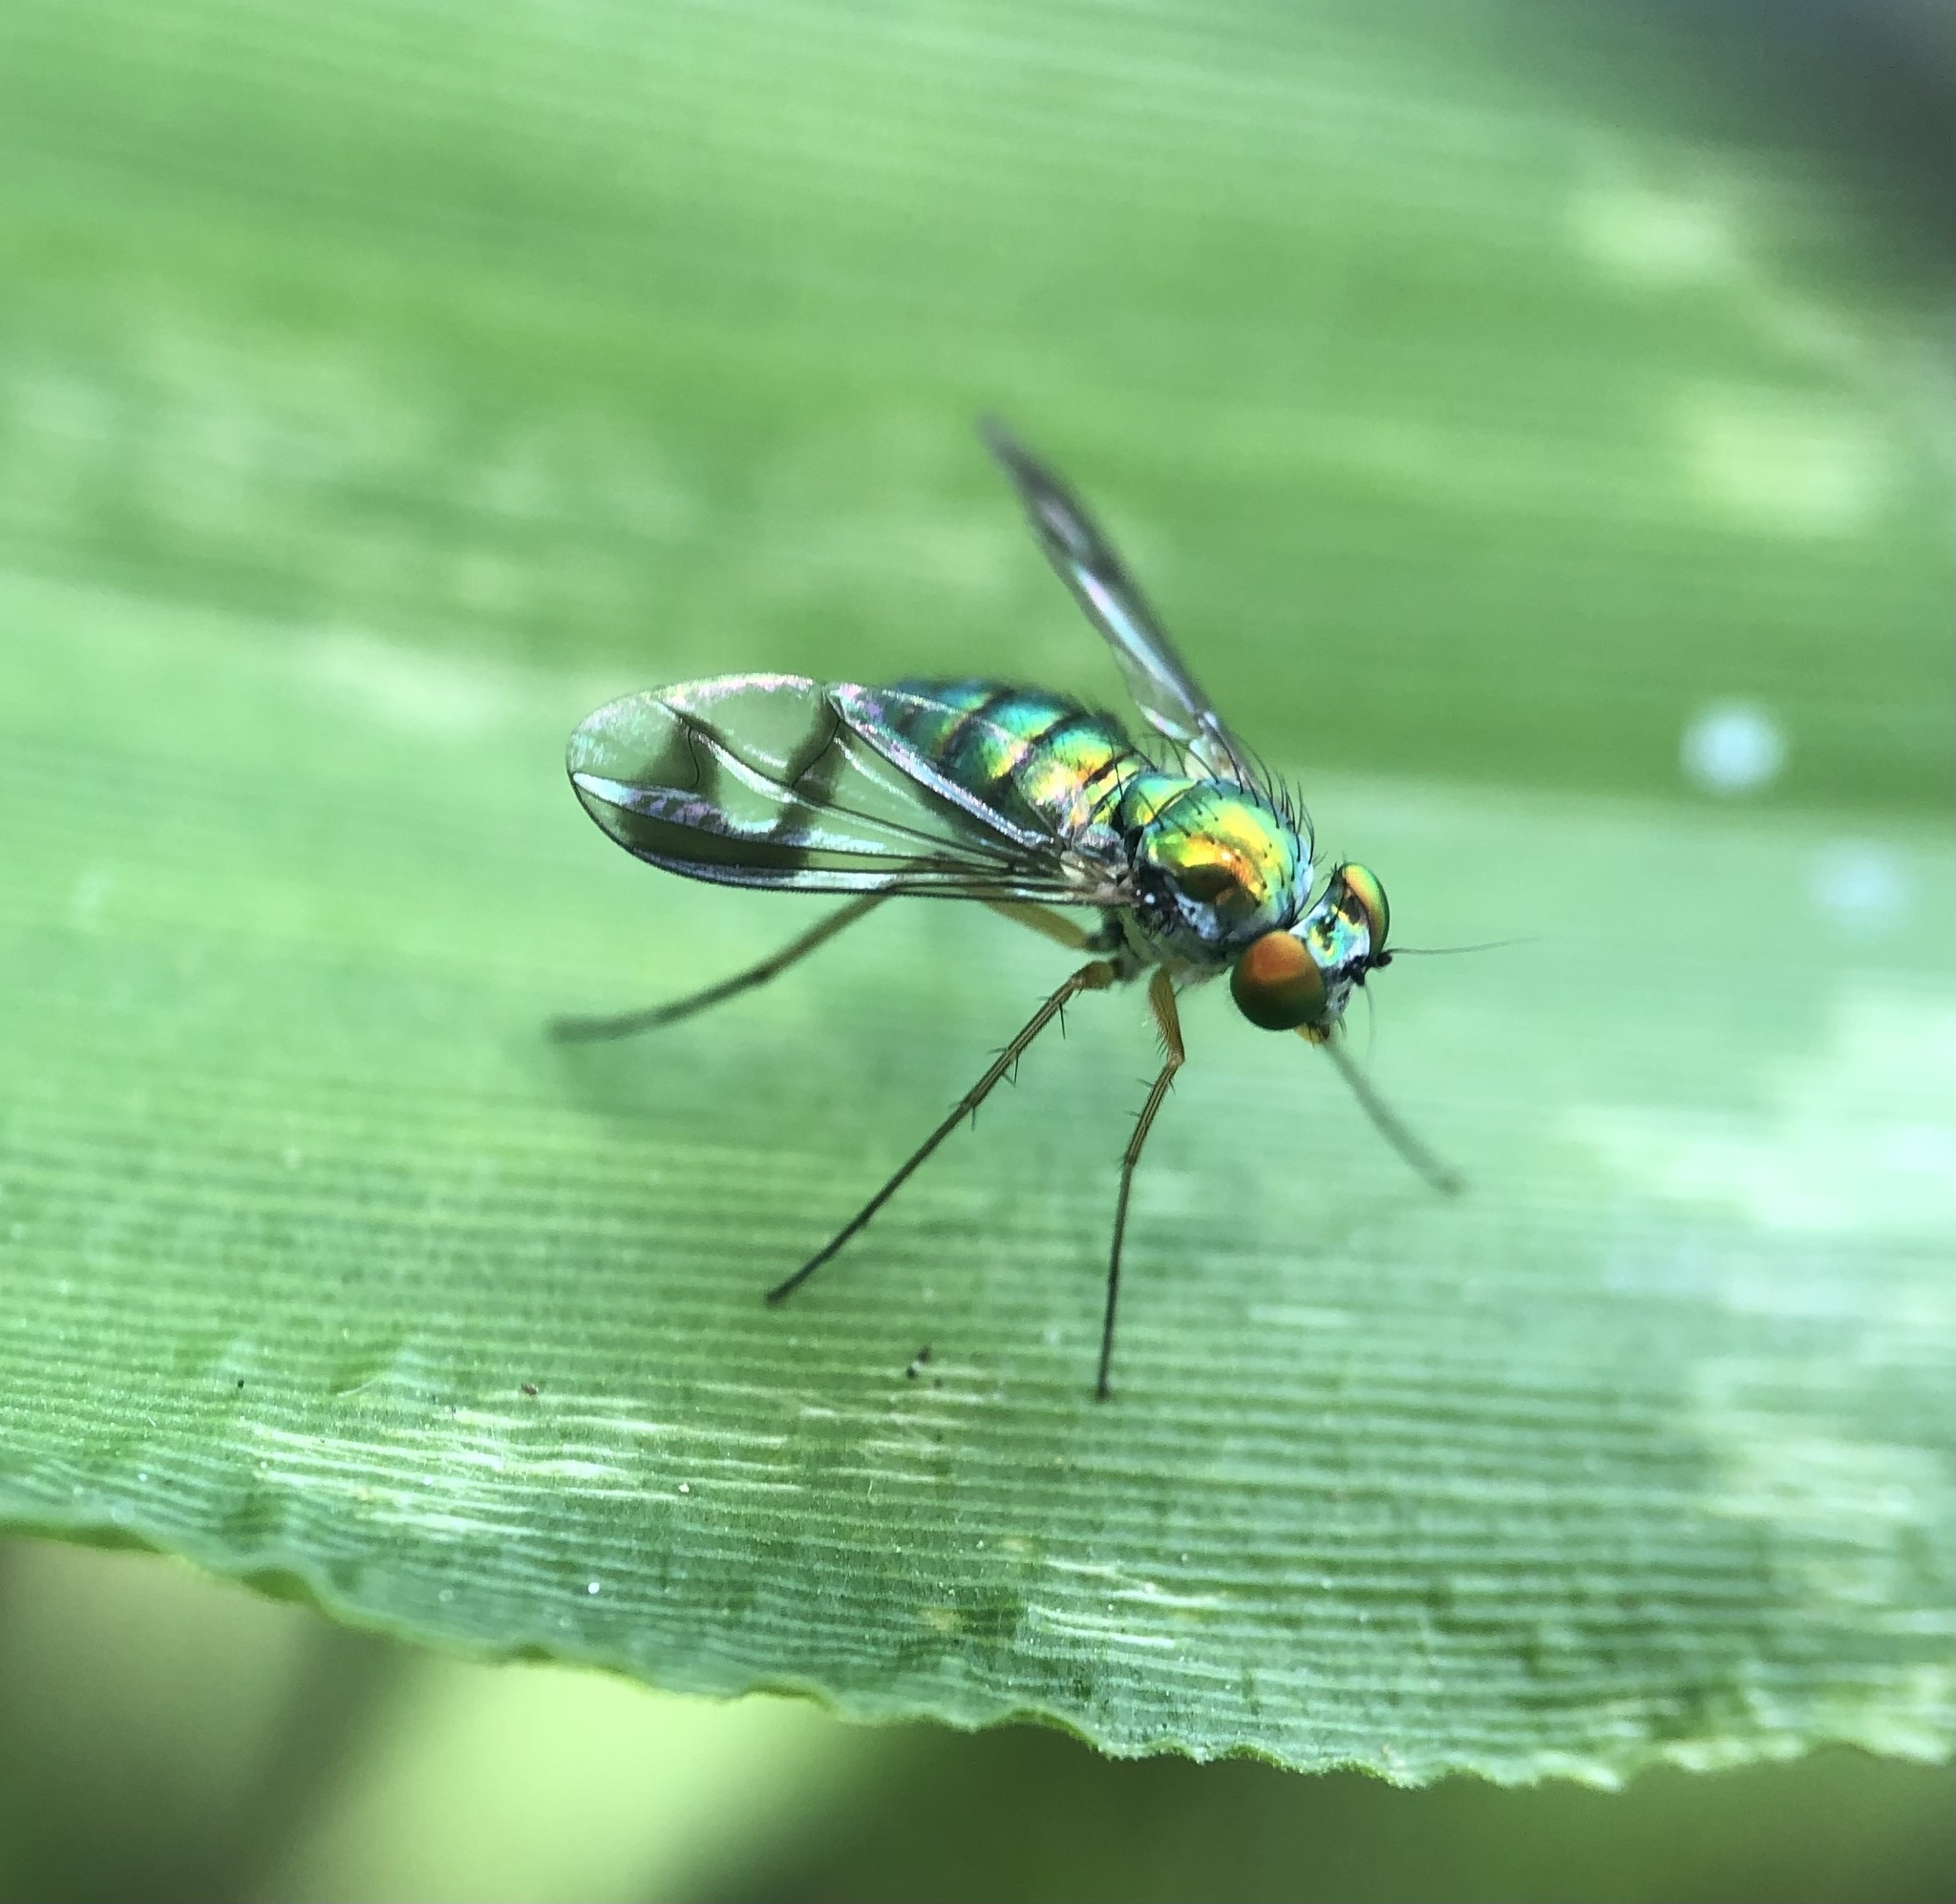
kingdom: Animalia
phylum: Arthropoda
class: Insecta
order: Diptera
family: Dolichopodidae
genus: Condylostylus
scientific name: Condylostylus
